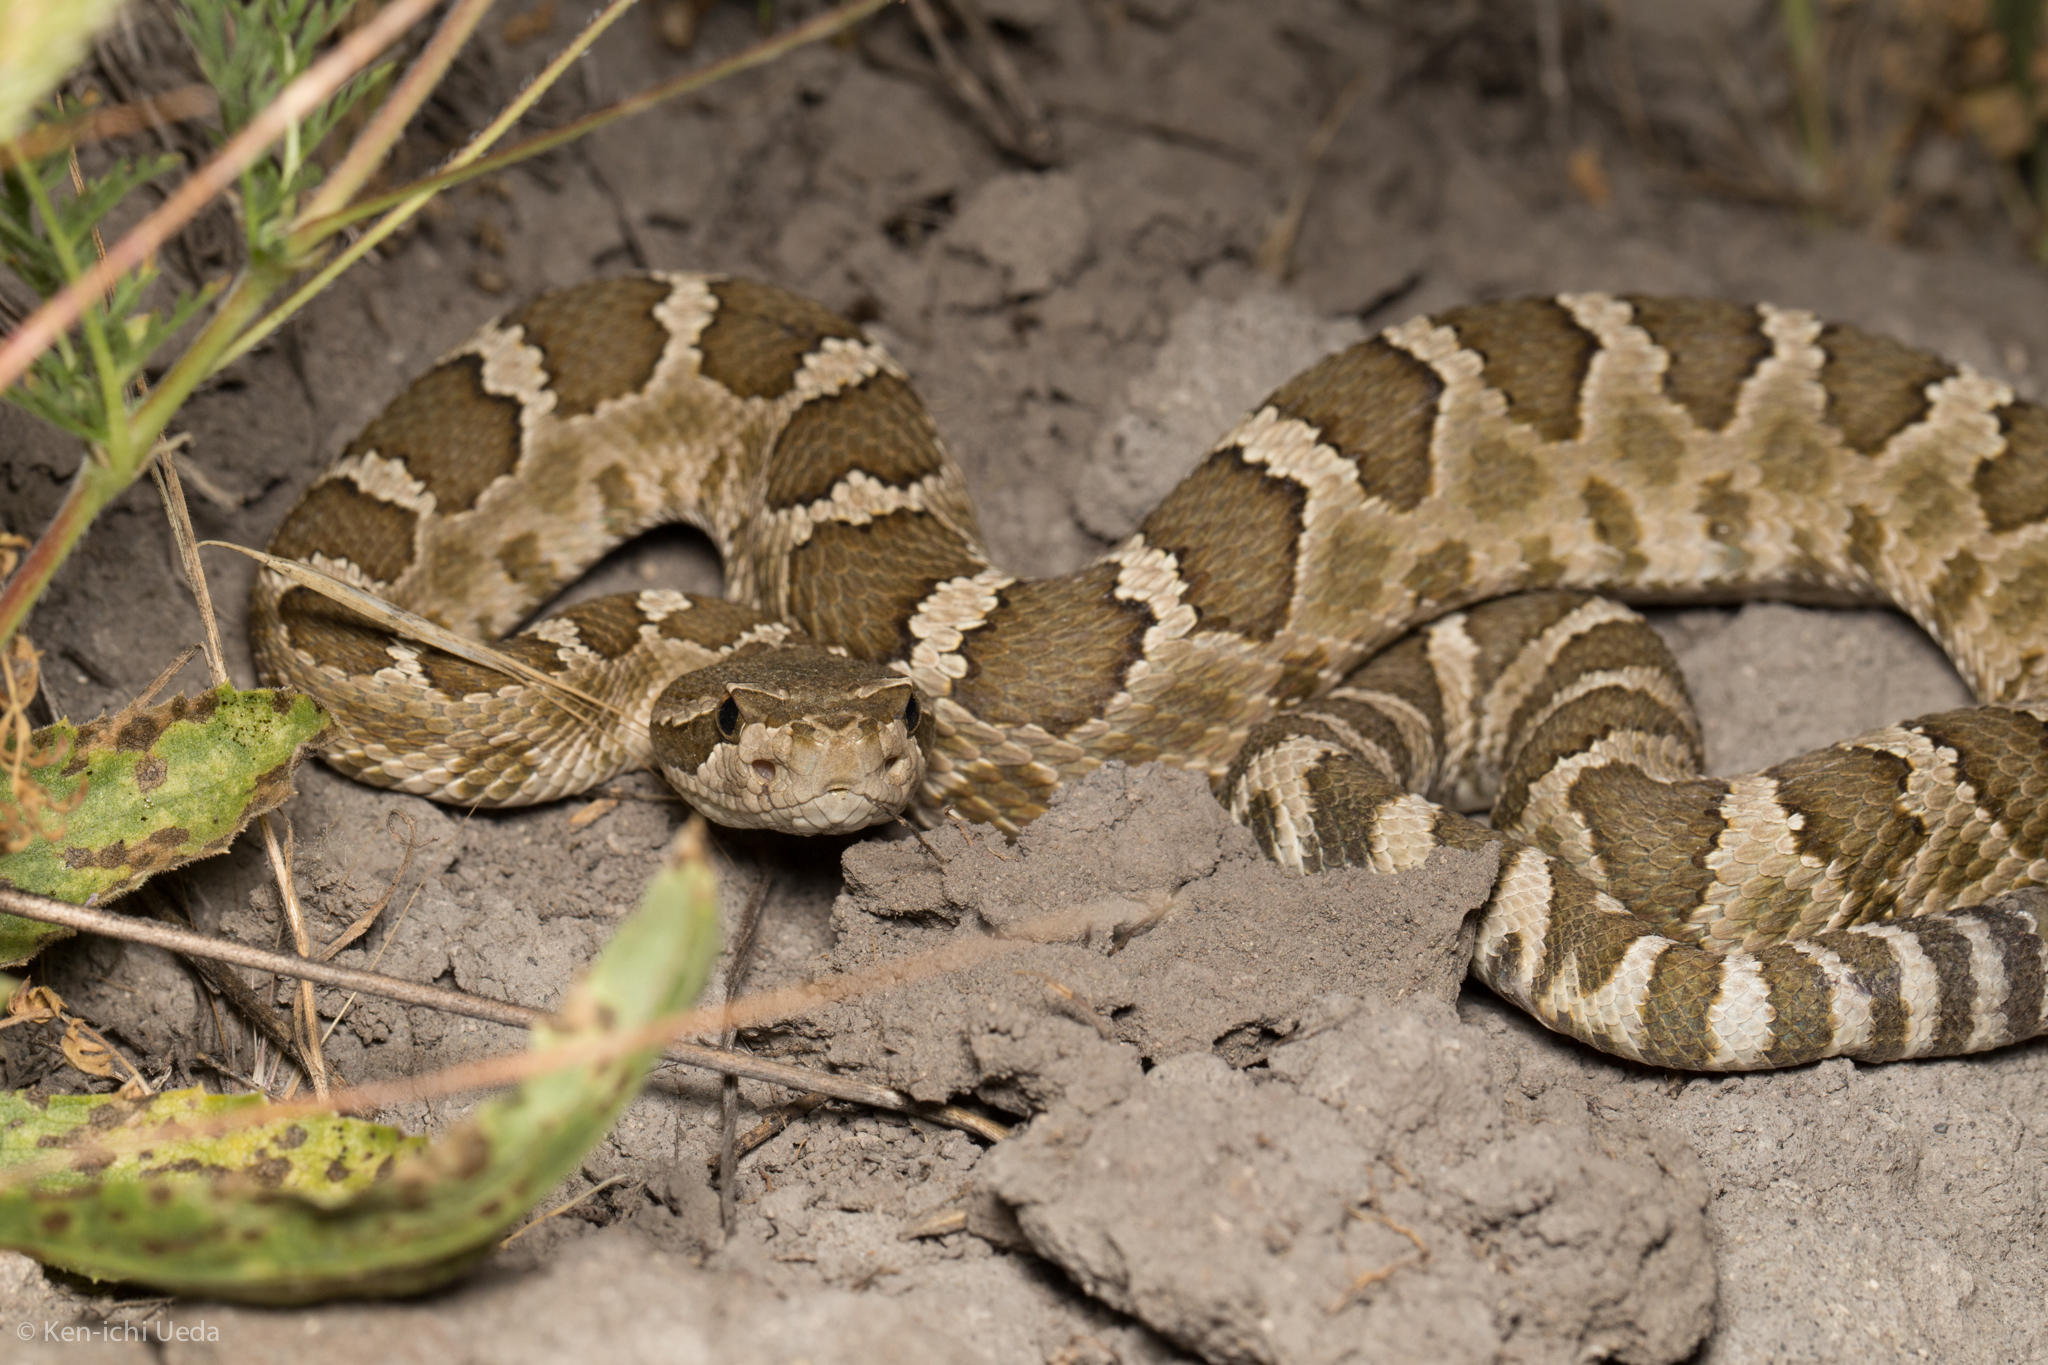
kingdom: Animalia
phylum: Chordata
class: Squamata
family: Viperidae
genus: Crotalus
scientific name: Crotalus oreganus
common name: Abyssus
